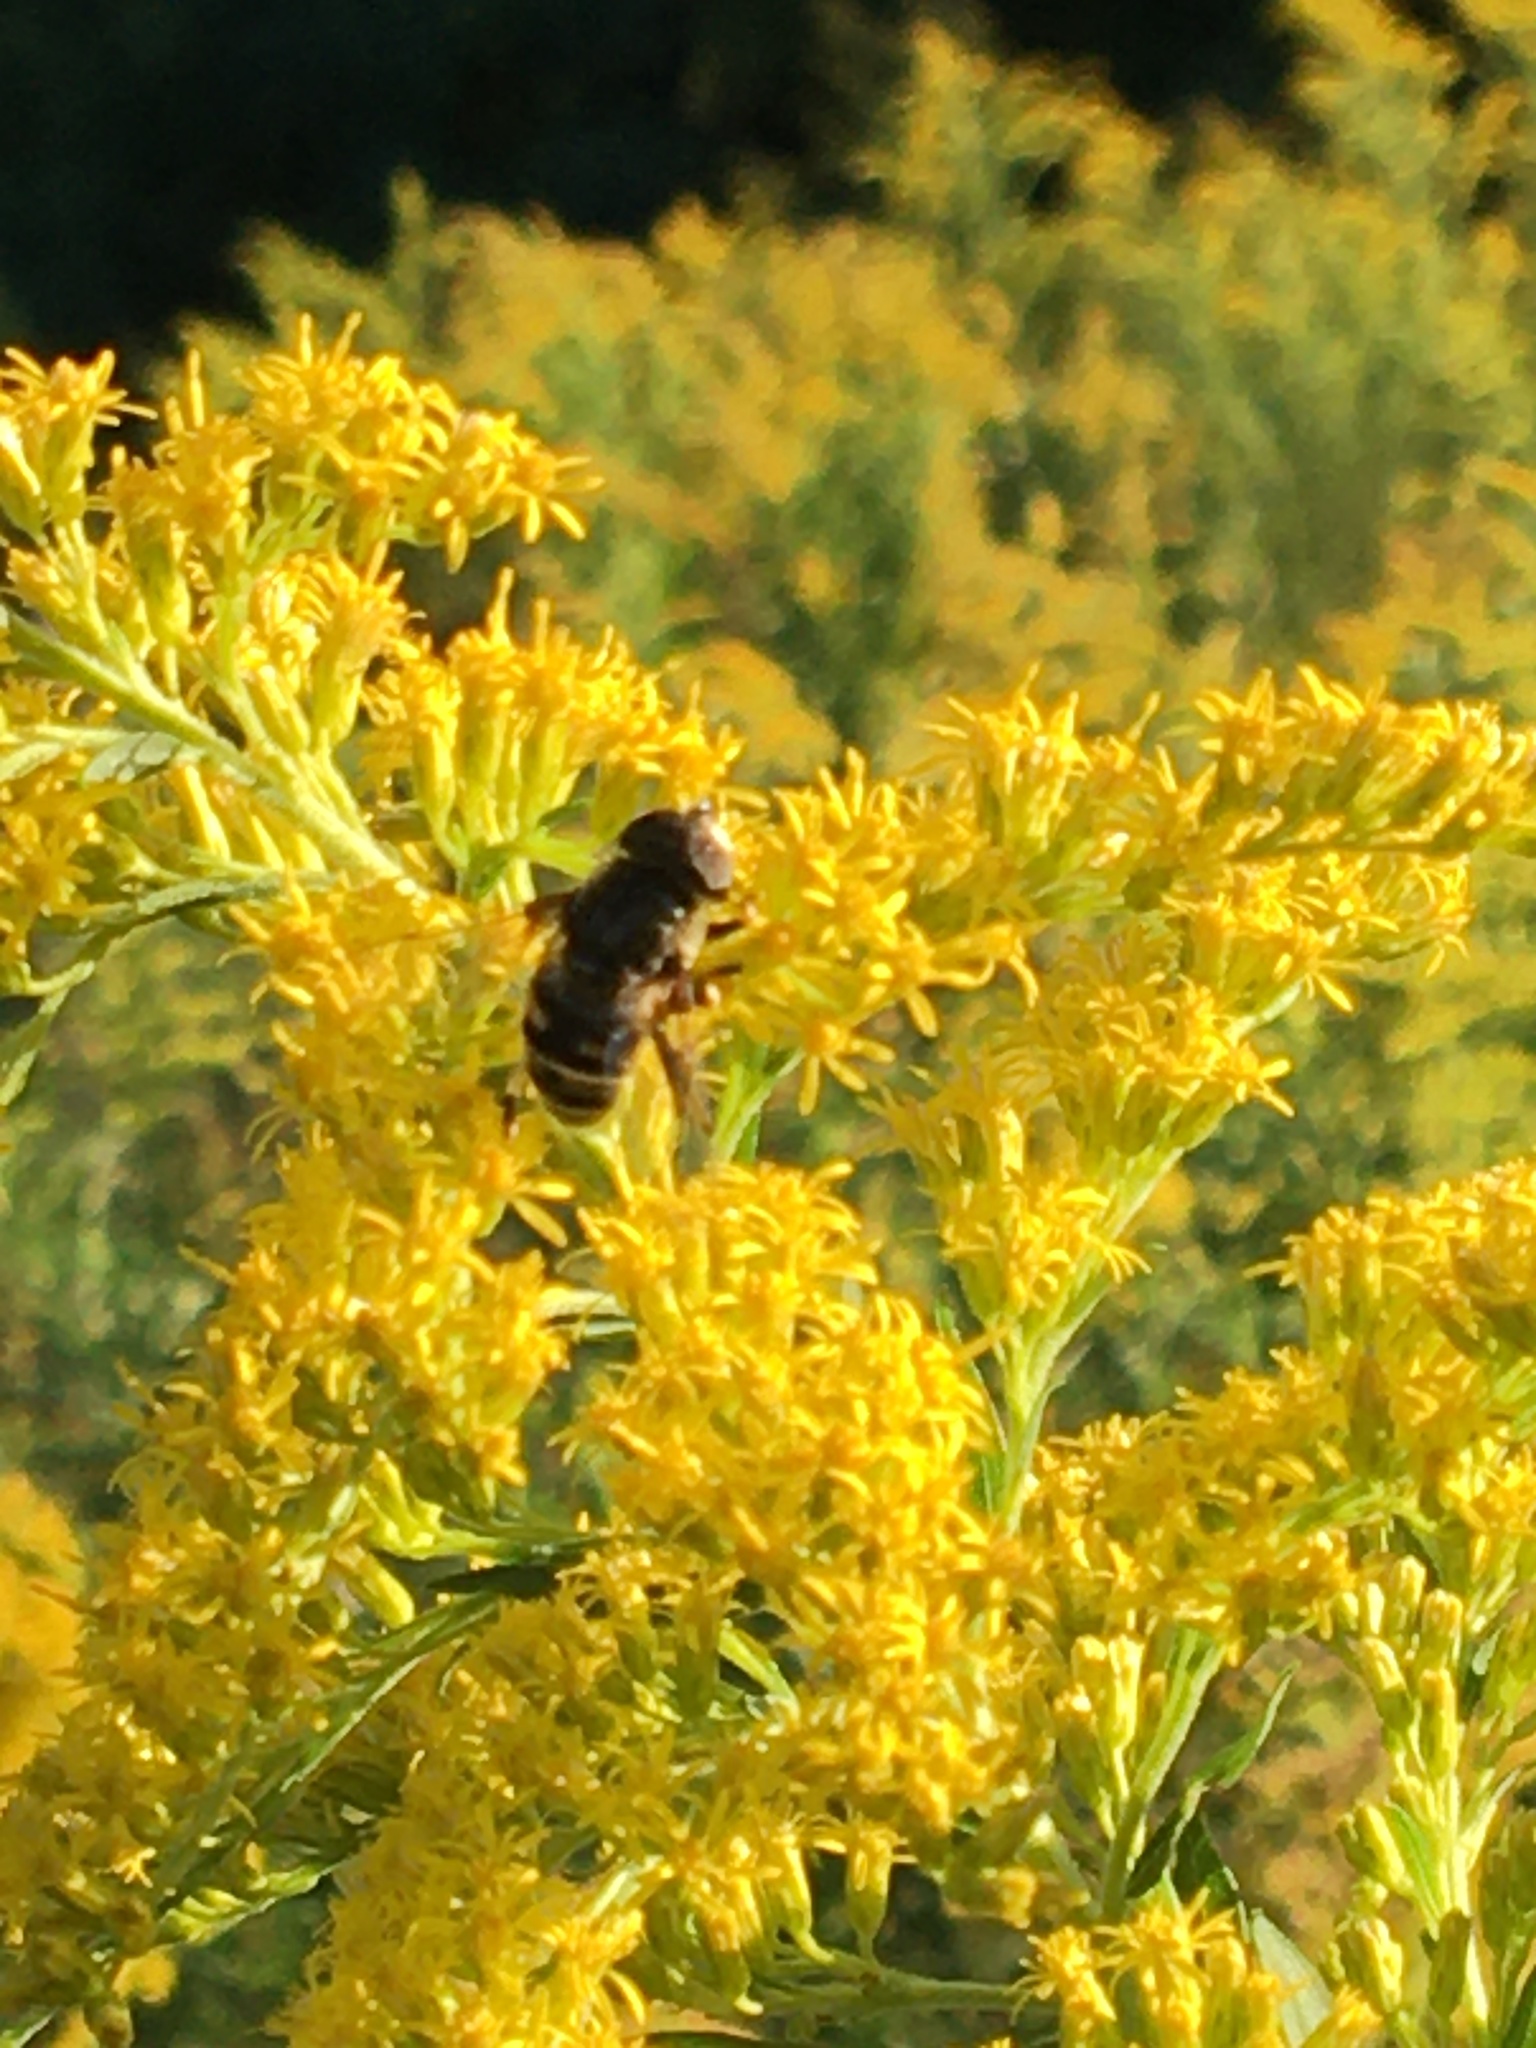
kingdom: Animalia
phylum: Arthropoda
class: Insecta
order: Diptera
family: Syrphidae
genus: Eristalis
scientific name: Eristalis dimidiata
